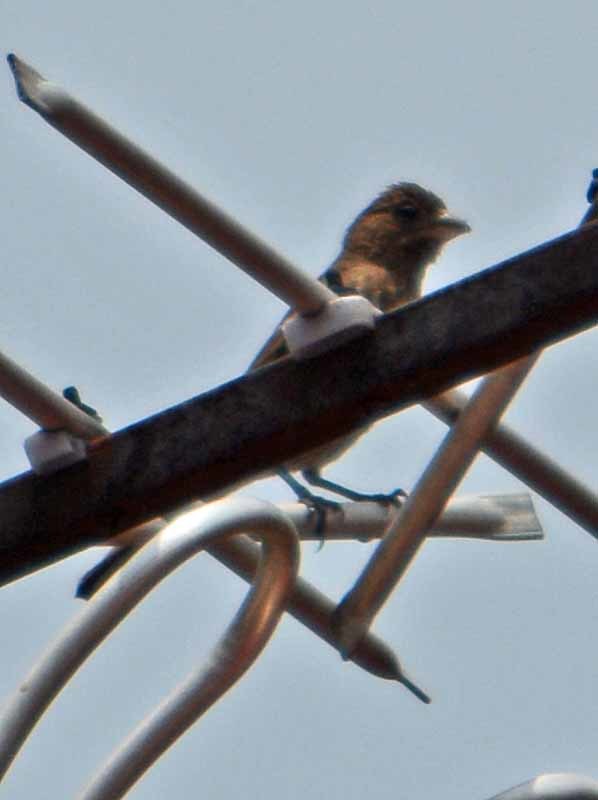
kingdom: Animalia
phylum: Chordata
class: Aves
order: Passeriformes
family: Fringillidae
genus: Haemorhous
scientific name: Haemorhous mexicanus
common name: House finch
